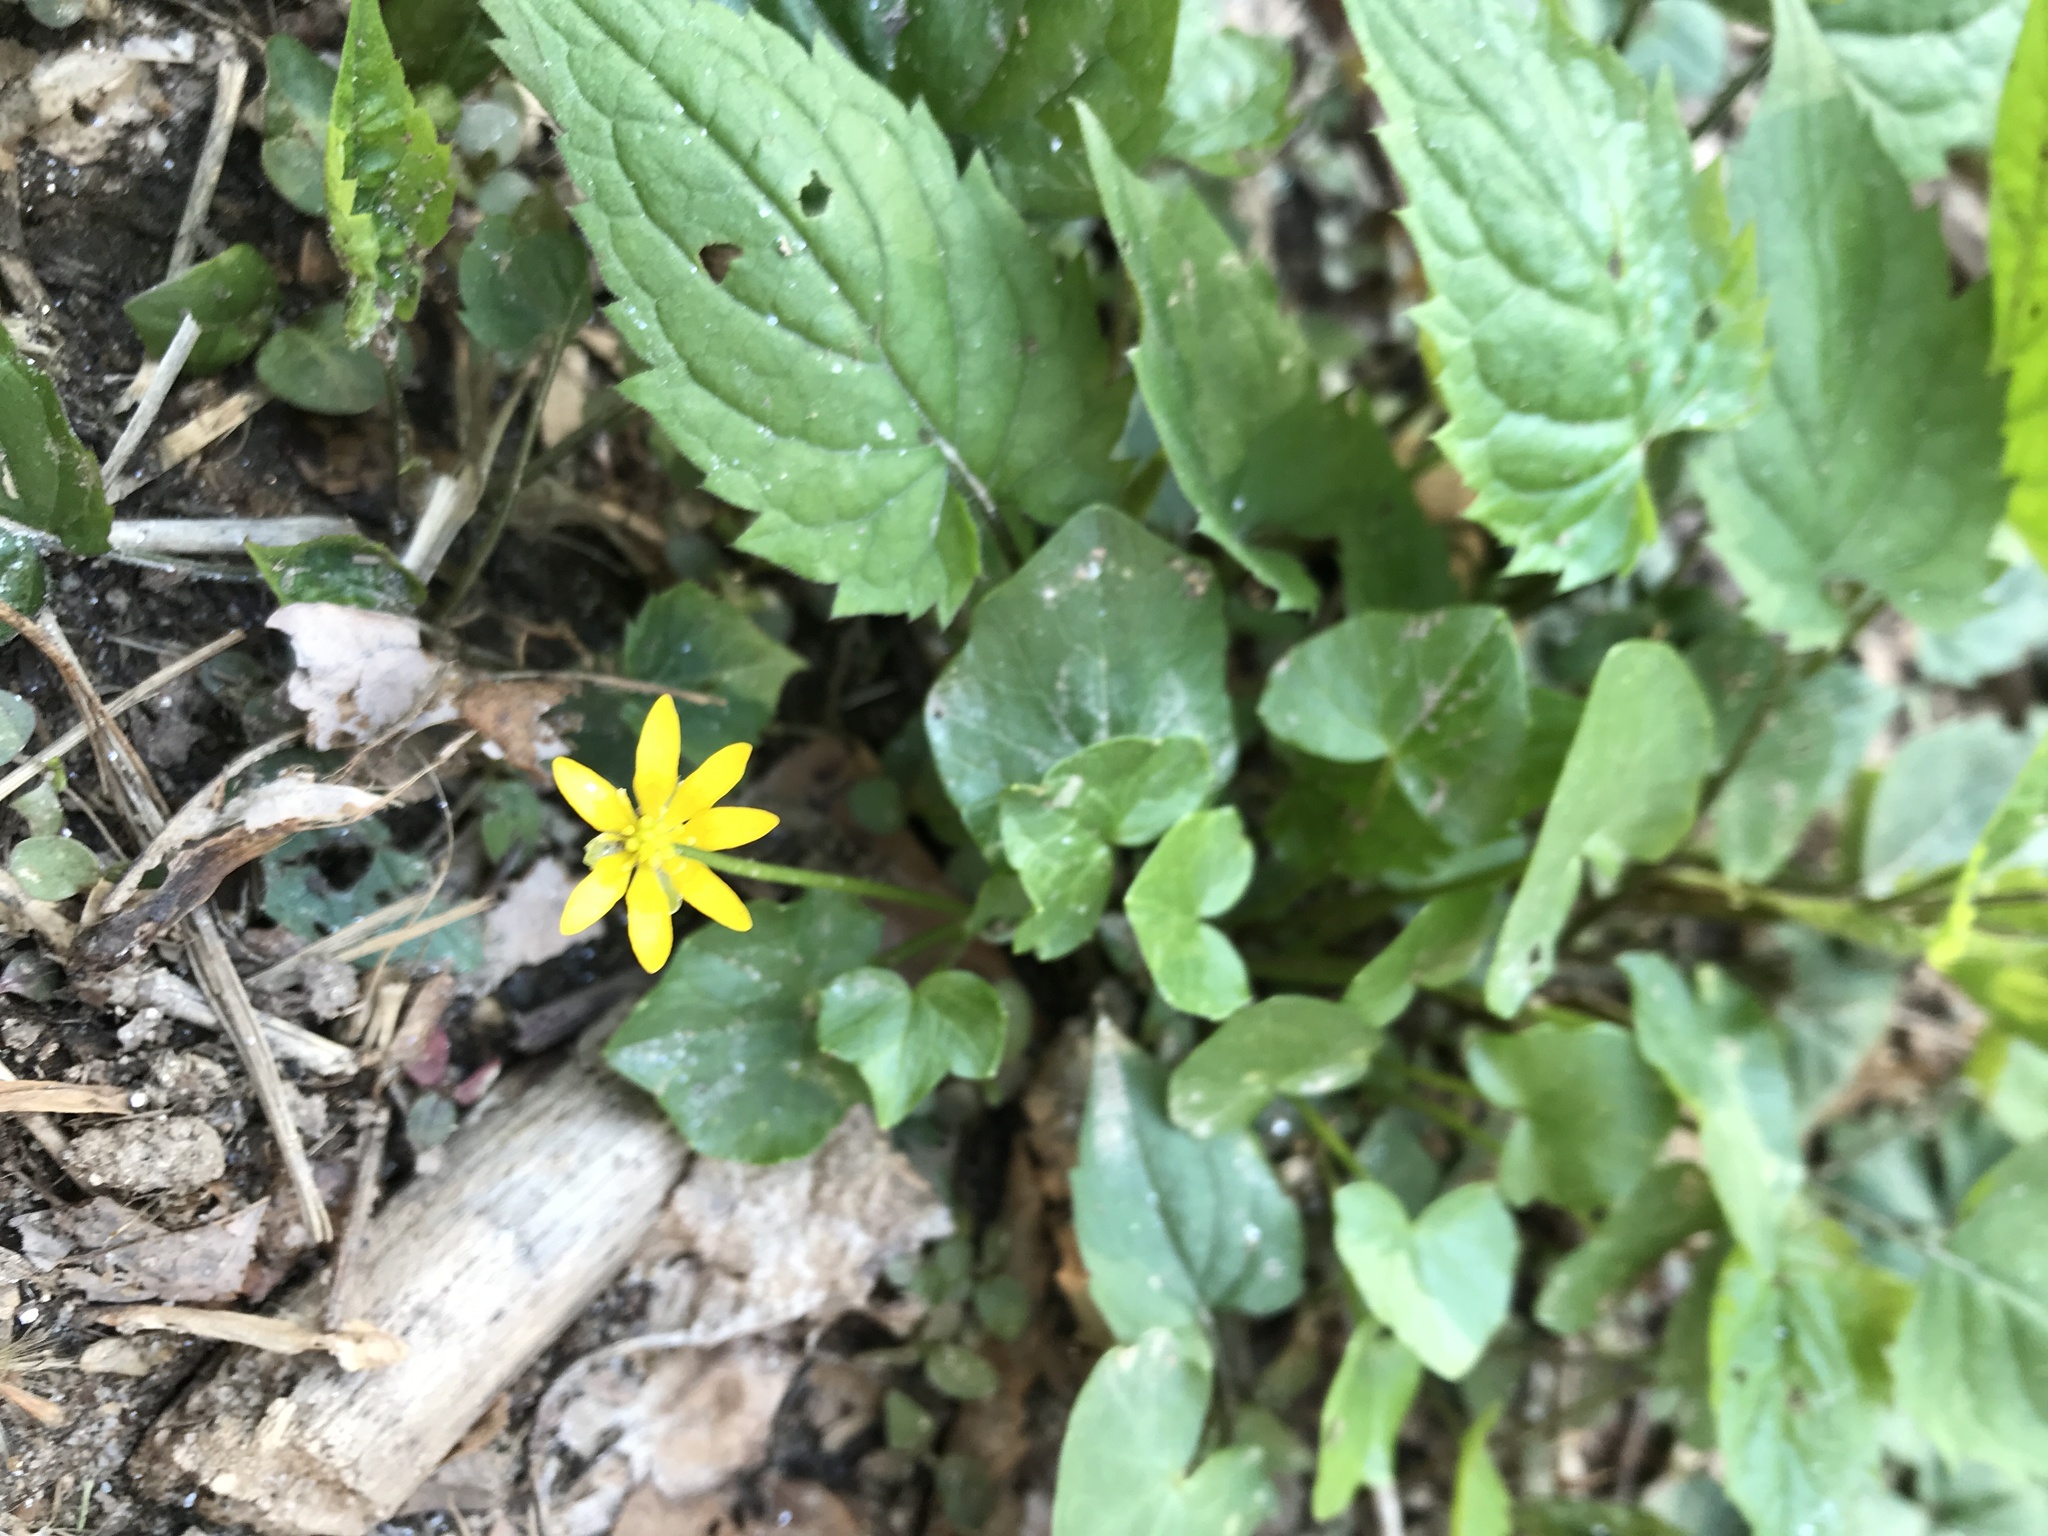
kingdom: Plantae
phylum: Tracheophyta
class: Magnoliopsida
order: Ranunculales
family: Ranunculaceae
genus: Ficaria
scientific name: Ficaria verna
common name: Lesser celandine
